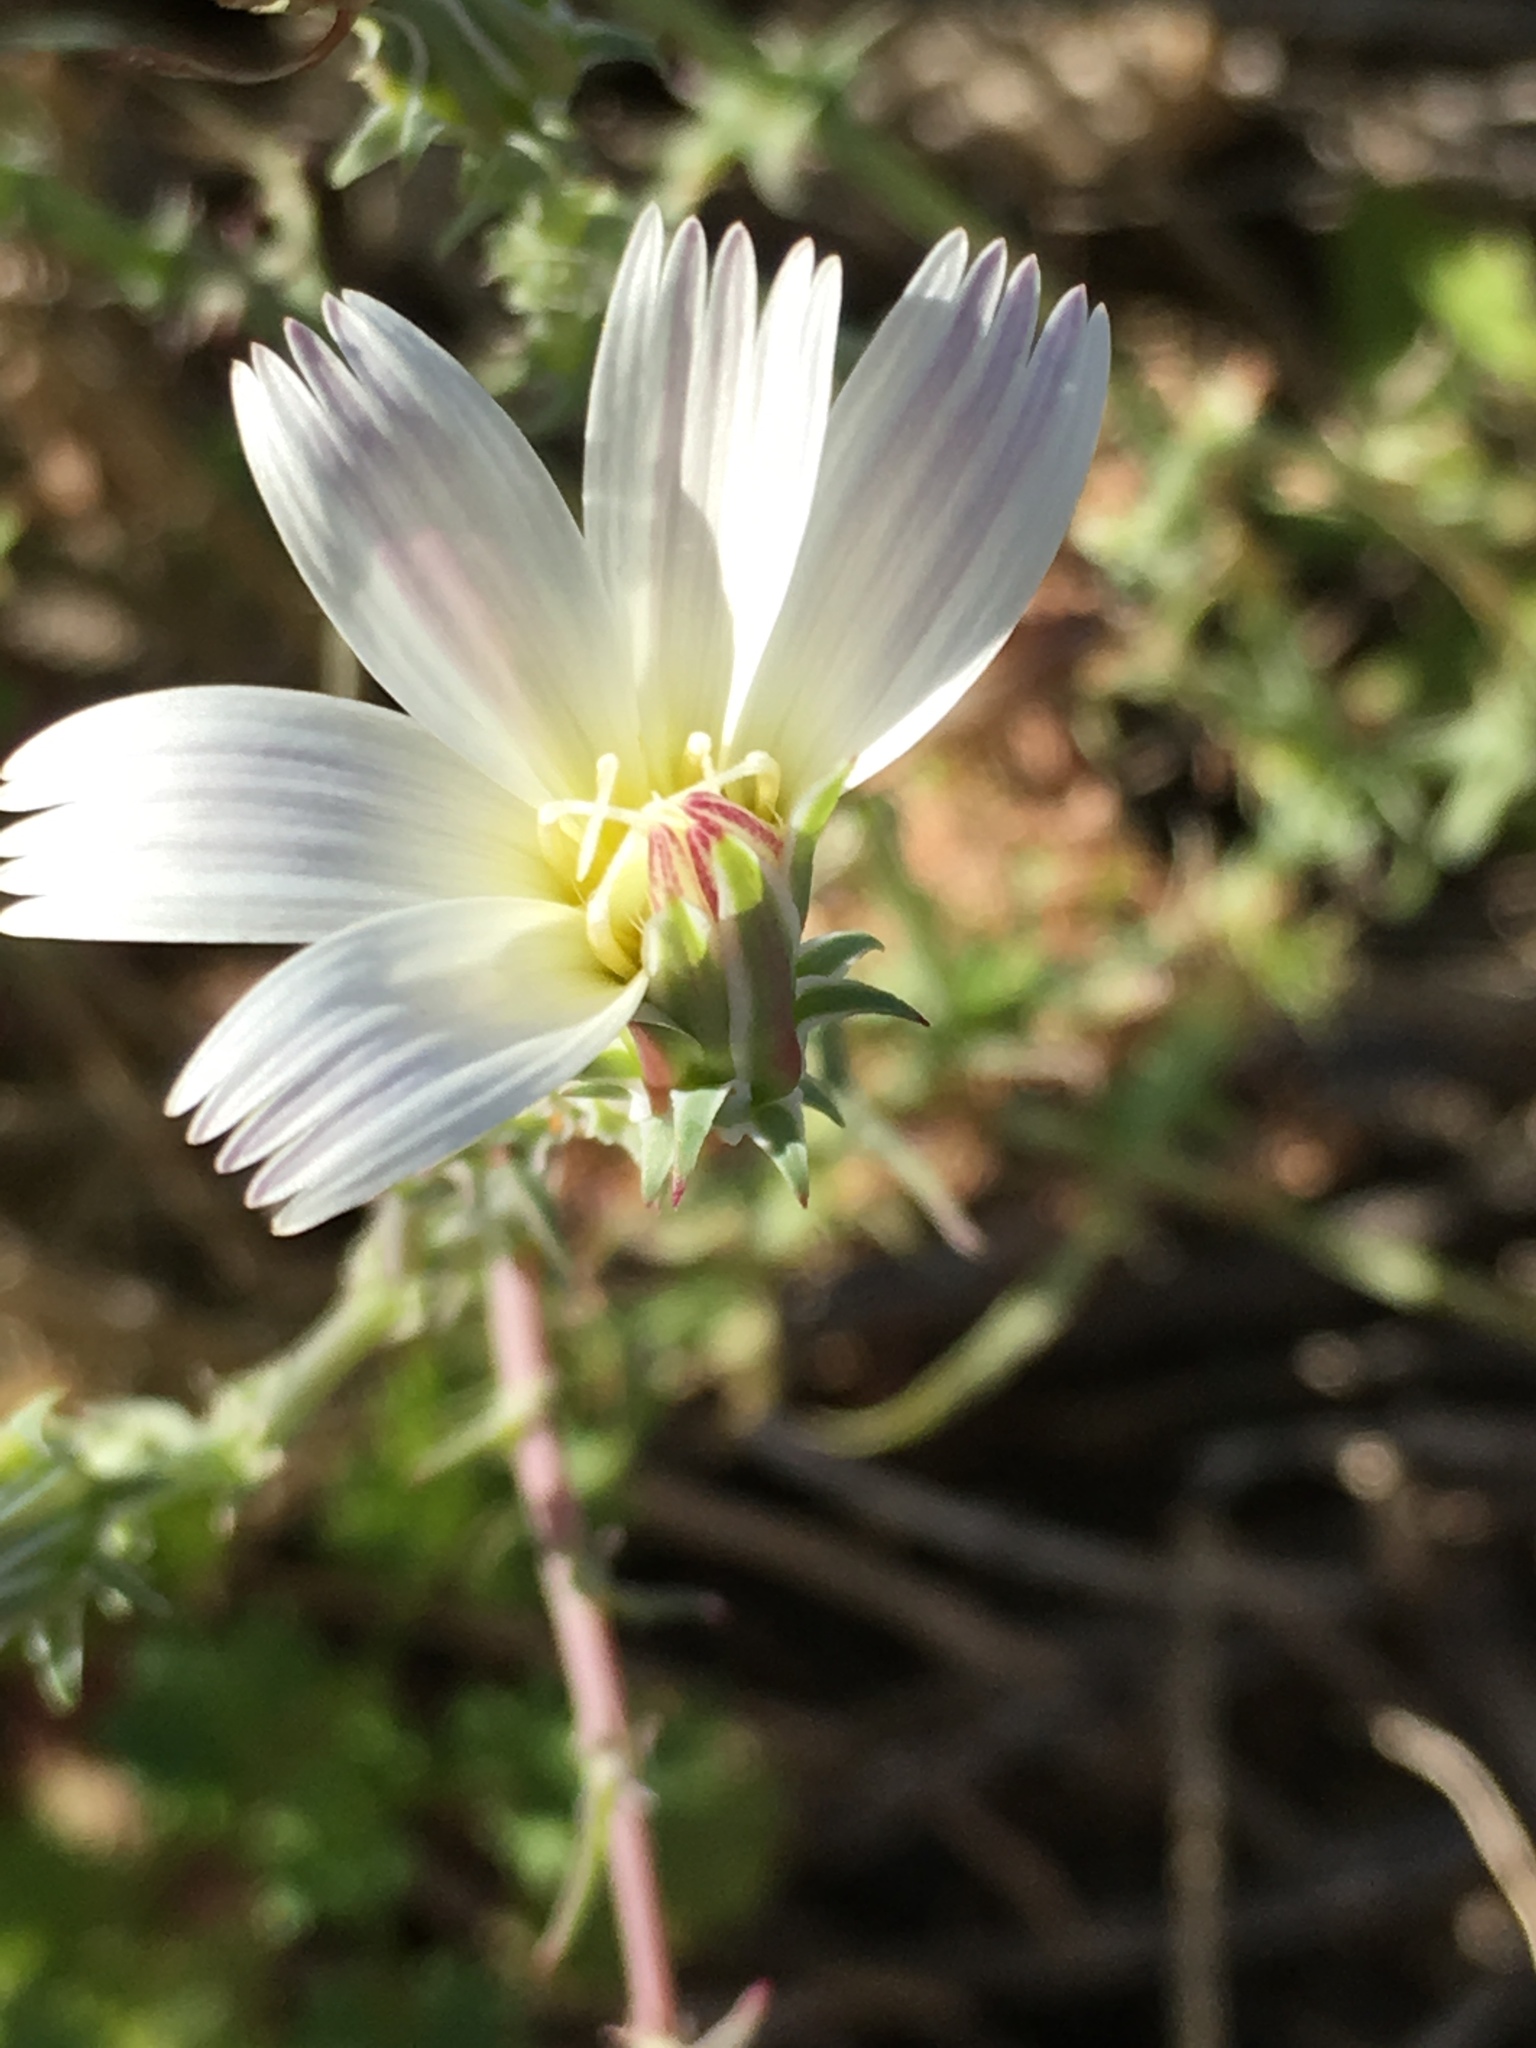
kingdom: Plantae
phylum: Tracheophyta
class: Magnoliopsida
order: Asterales
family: Asteraceae
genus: Rafinesquia
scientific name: Rafinesquia neomexicana
